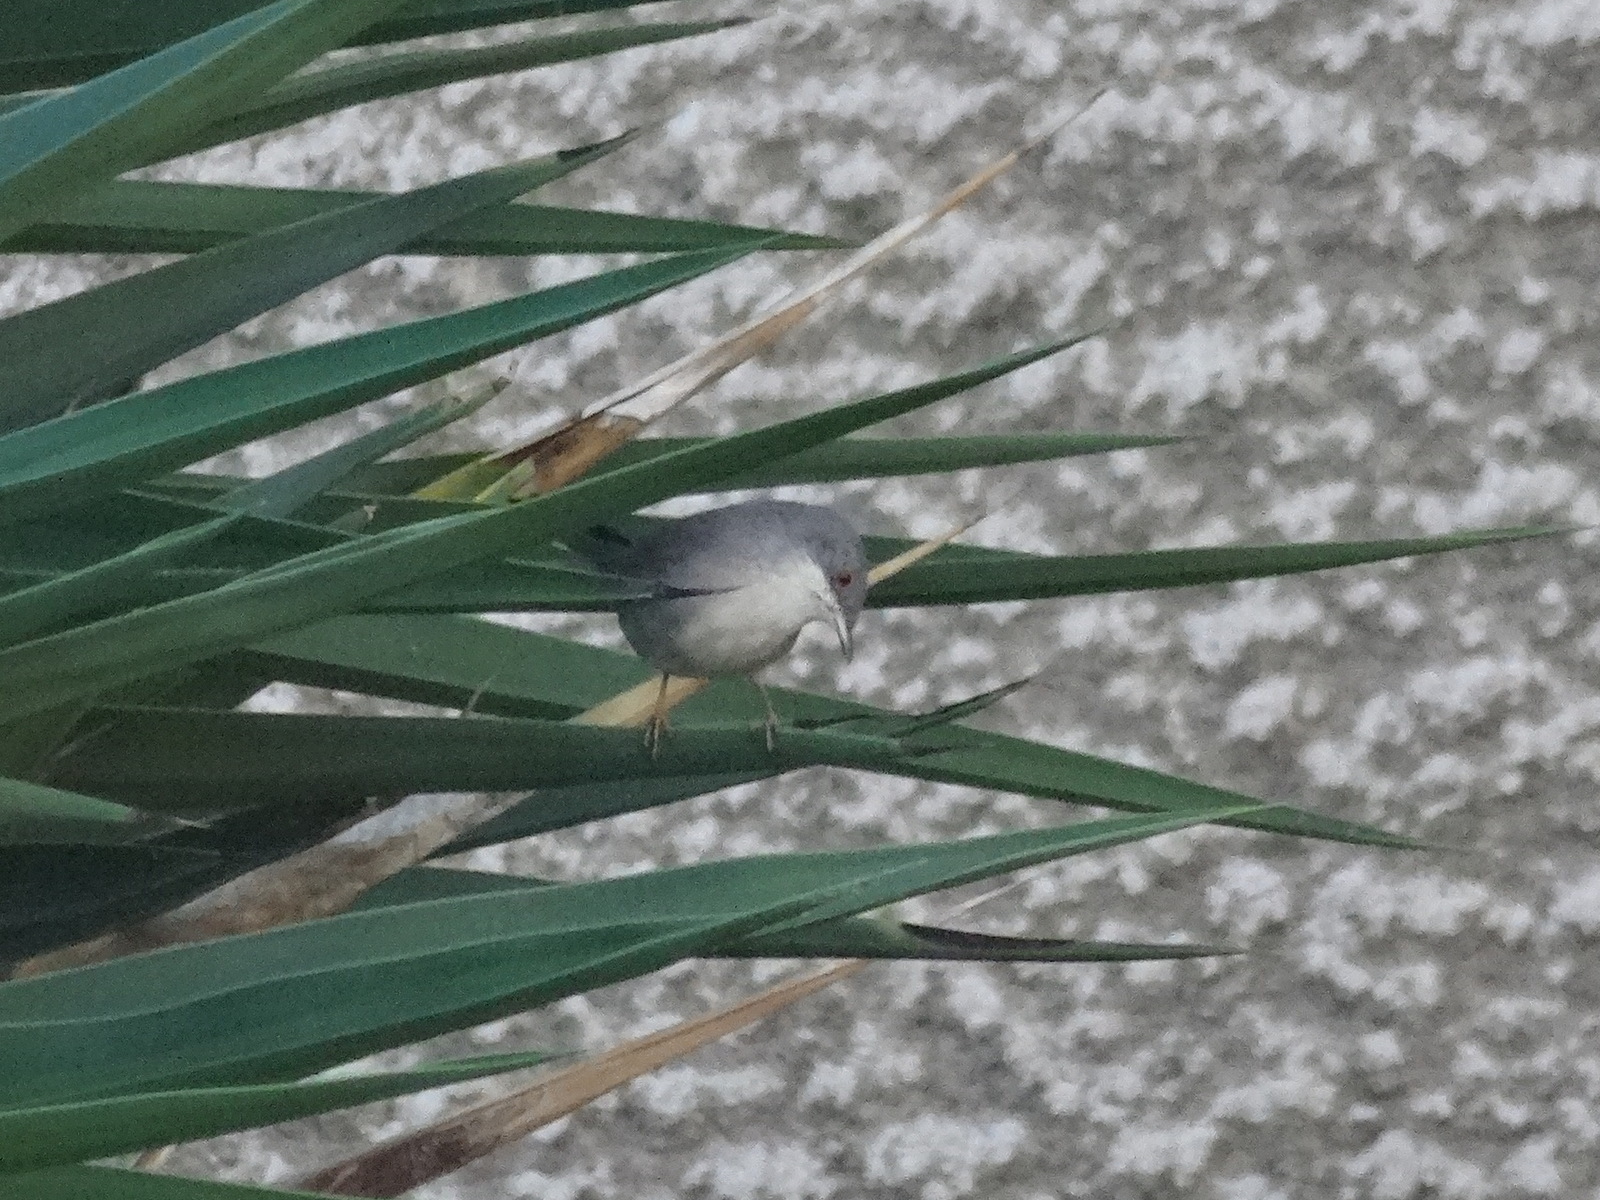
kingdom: Animalia
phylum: Chordata
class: Aves
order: Passeriformes
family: Sylviidae
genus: Curruca
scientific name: Curruca melanocephala
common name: Sardinian warbler
